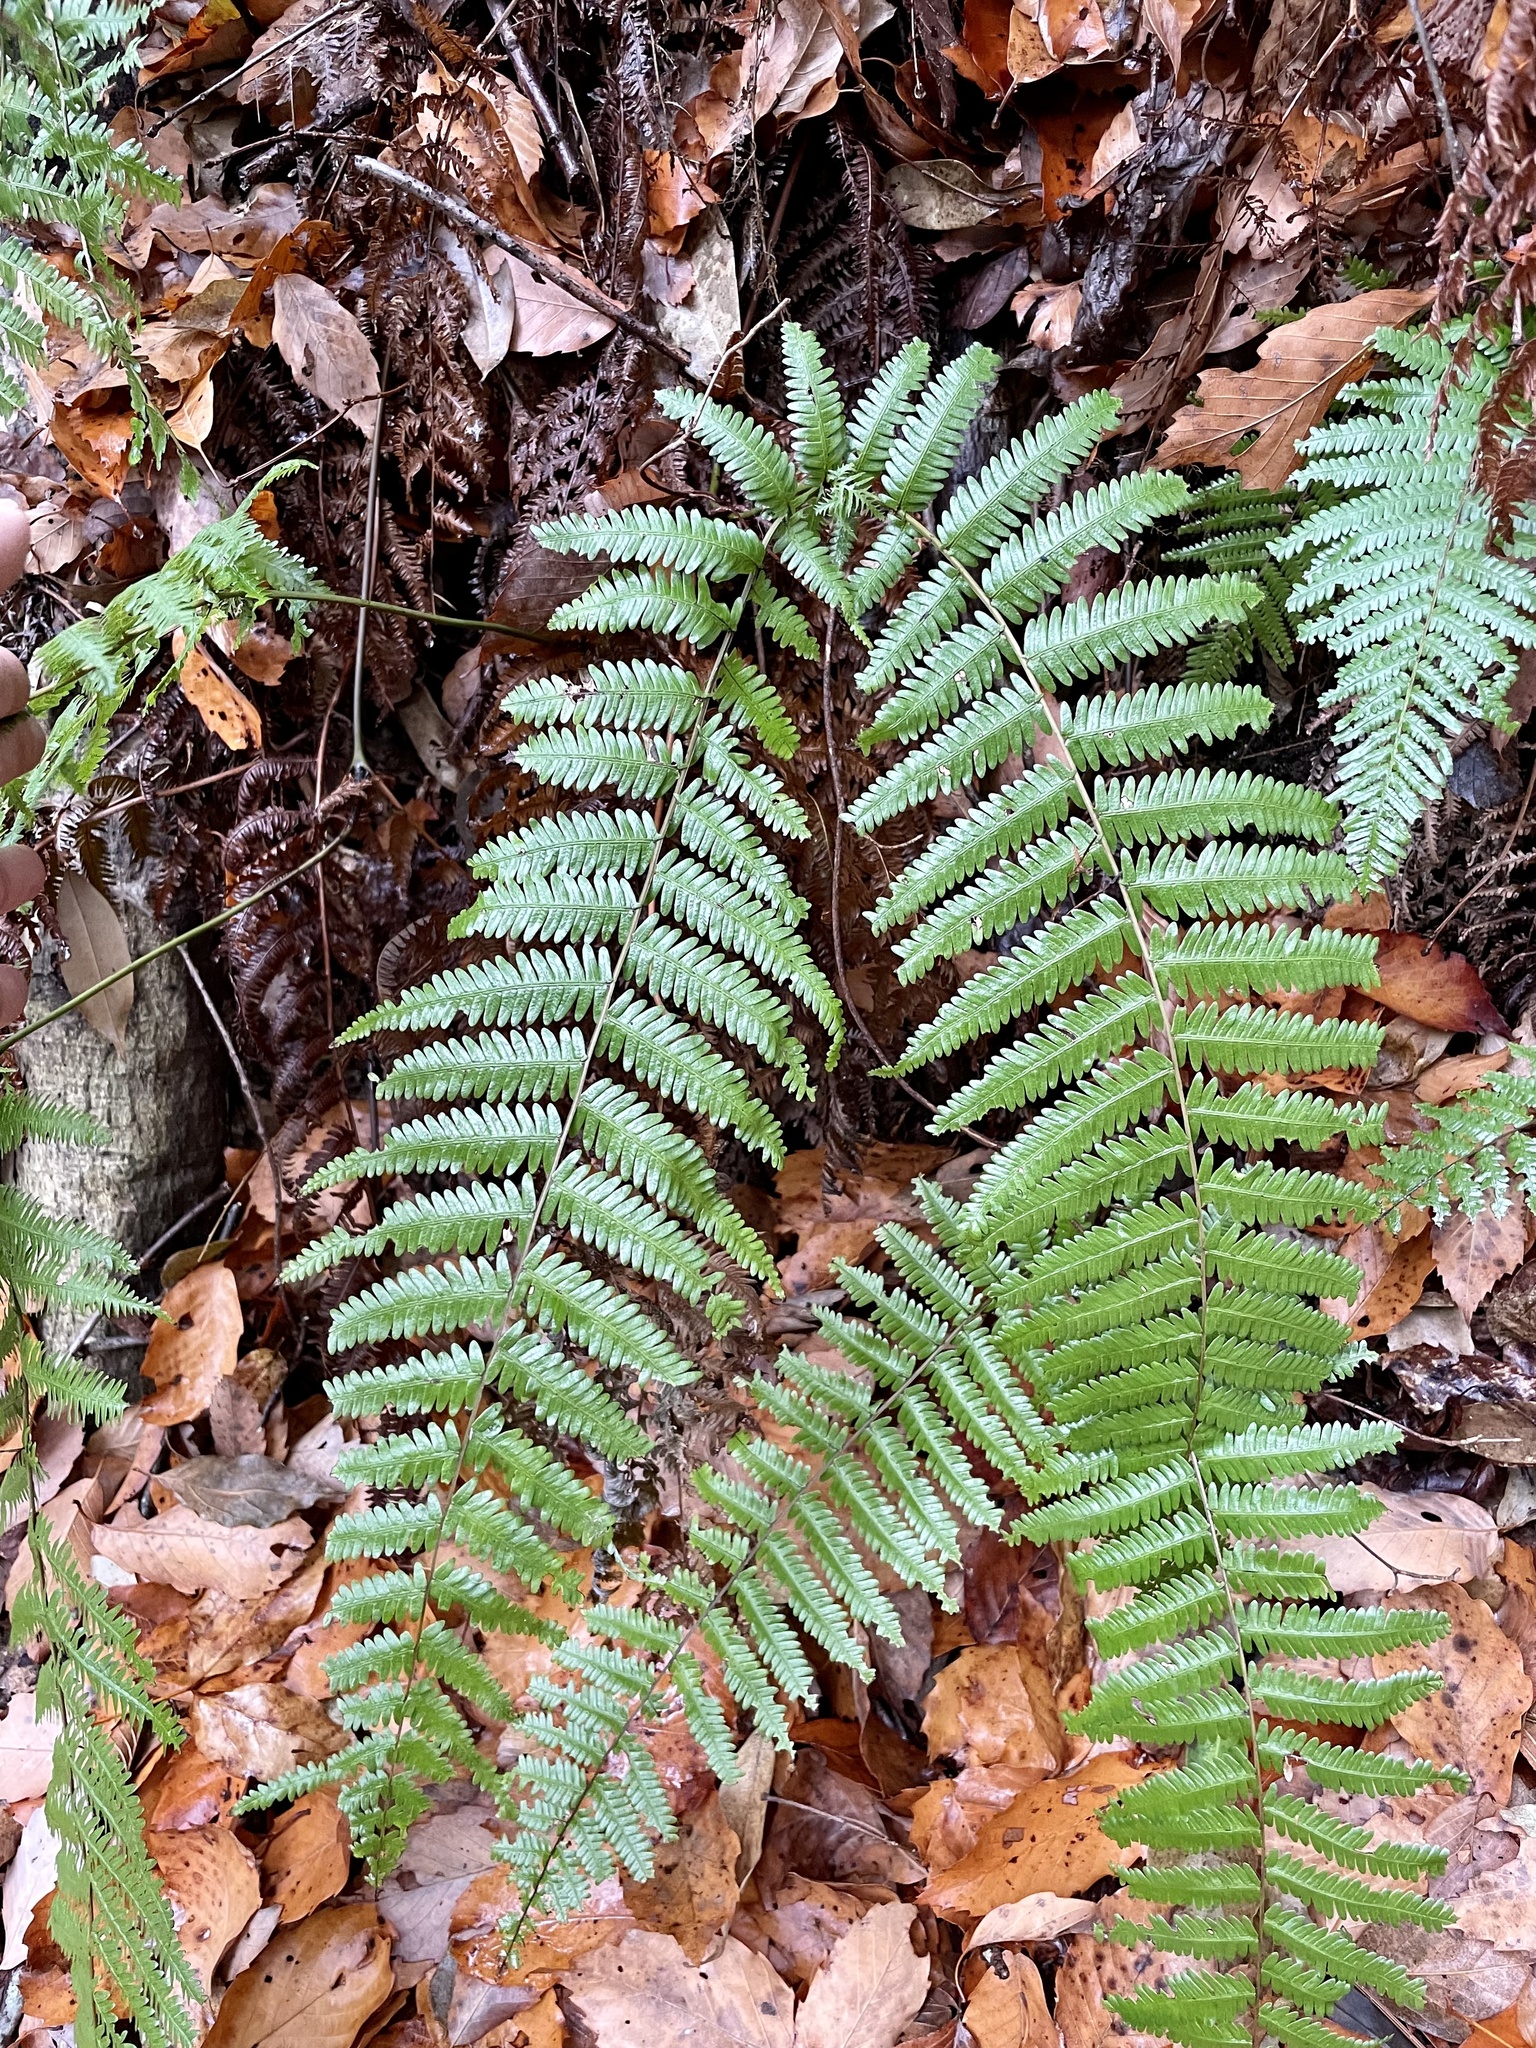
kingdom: Plantae
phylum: Tracheophyta
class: Polypodiopsida
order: Gleicheniales
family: Gleicheniaceae
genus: Diplopterygium
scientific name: Diplopterygium glaucum
